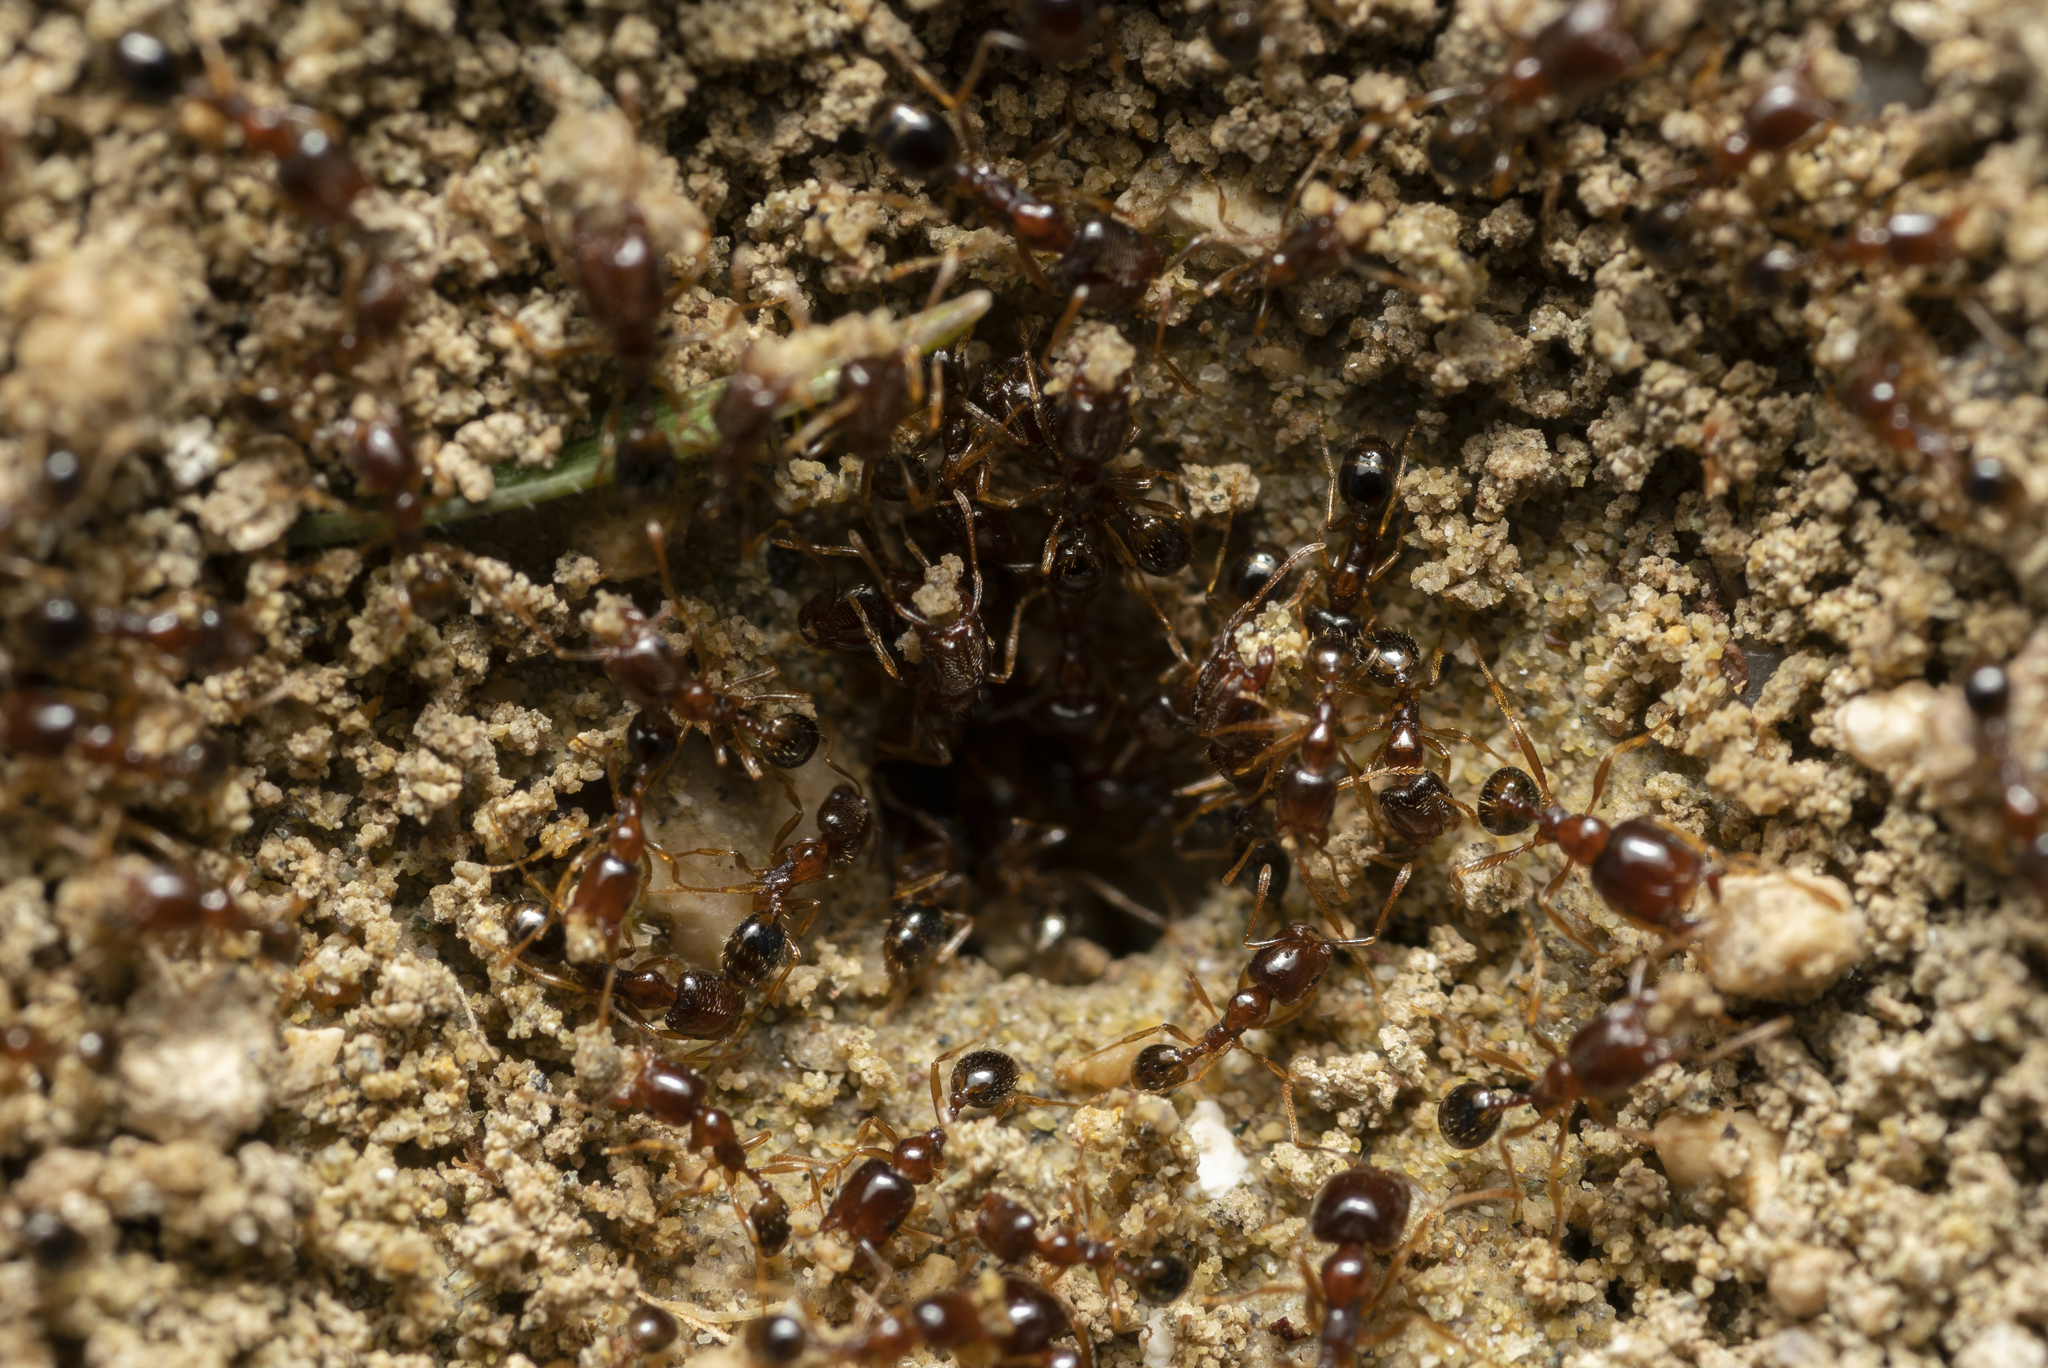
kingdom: Animalia
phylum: Arthropoda
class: Insecta
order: Hymenoptera
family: Formicidae
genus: Monomorium
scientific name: Monomorium perplexum
